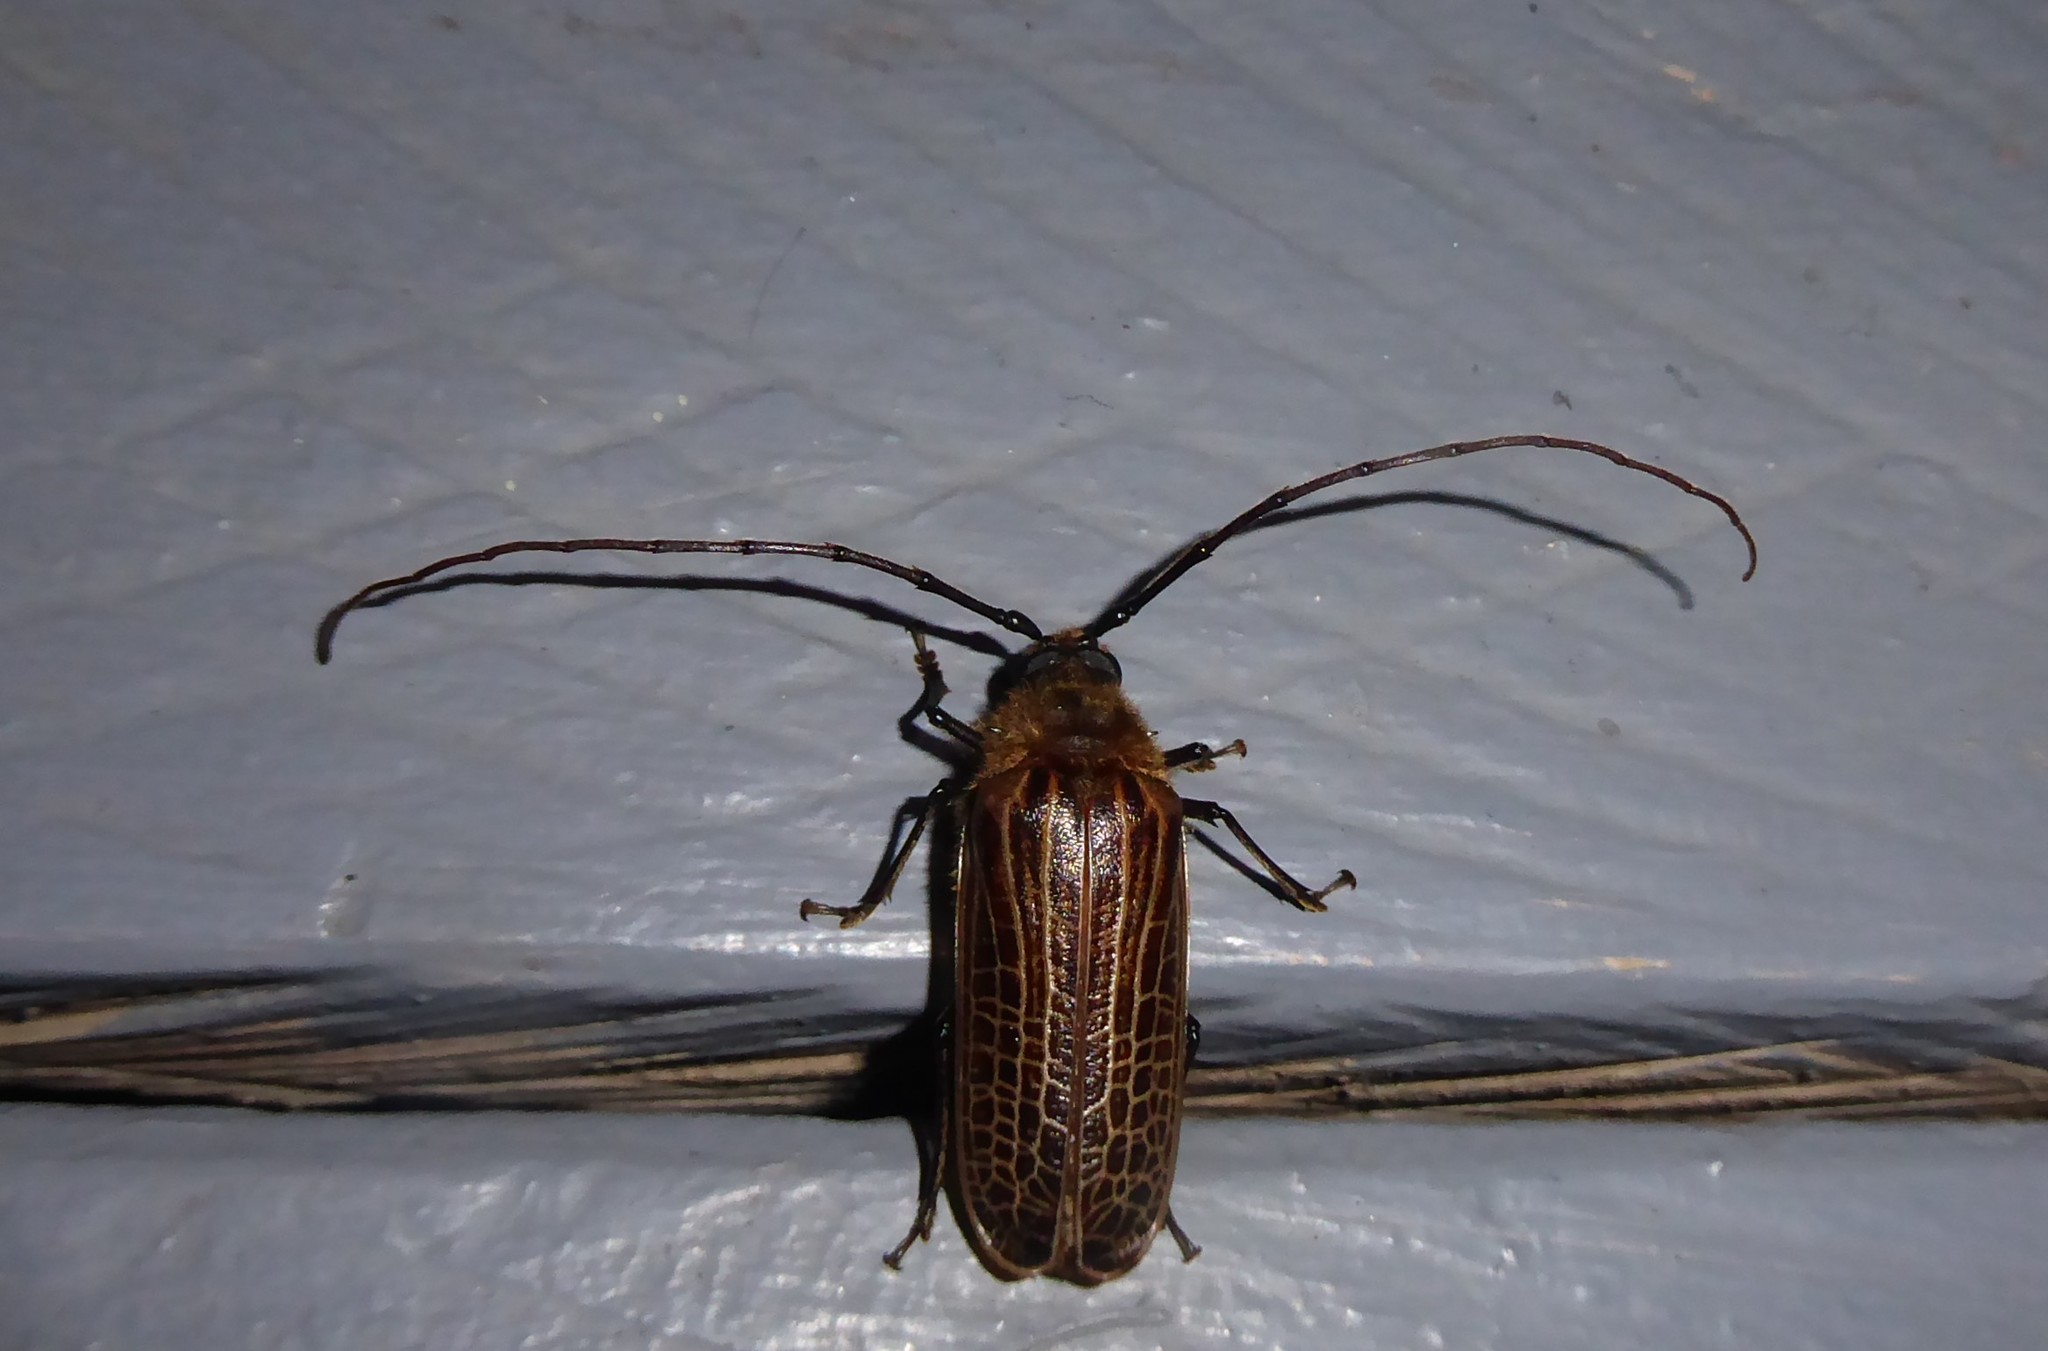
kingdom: Animalia
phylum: Arthropoda
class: Insecta
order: Coleoptera
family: Cerambycidae
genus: Prionoplus
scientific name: Prionoplus reticularis
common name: Huhu beetle
